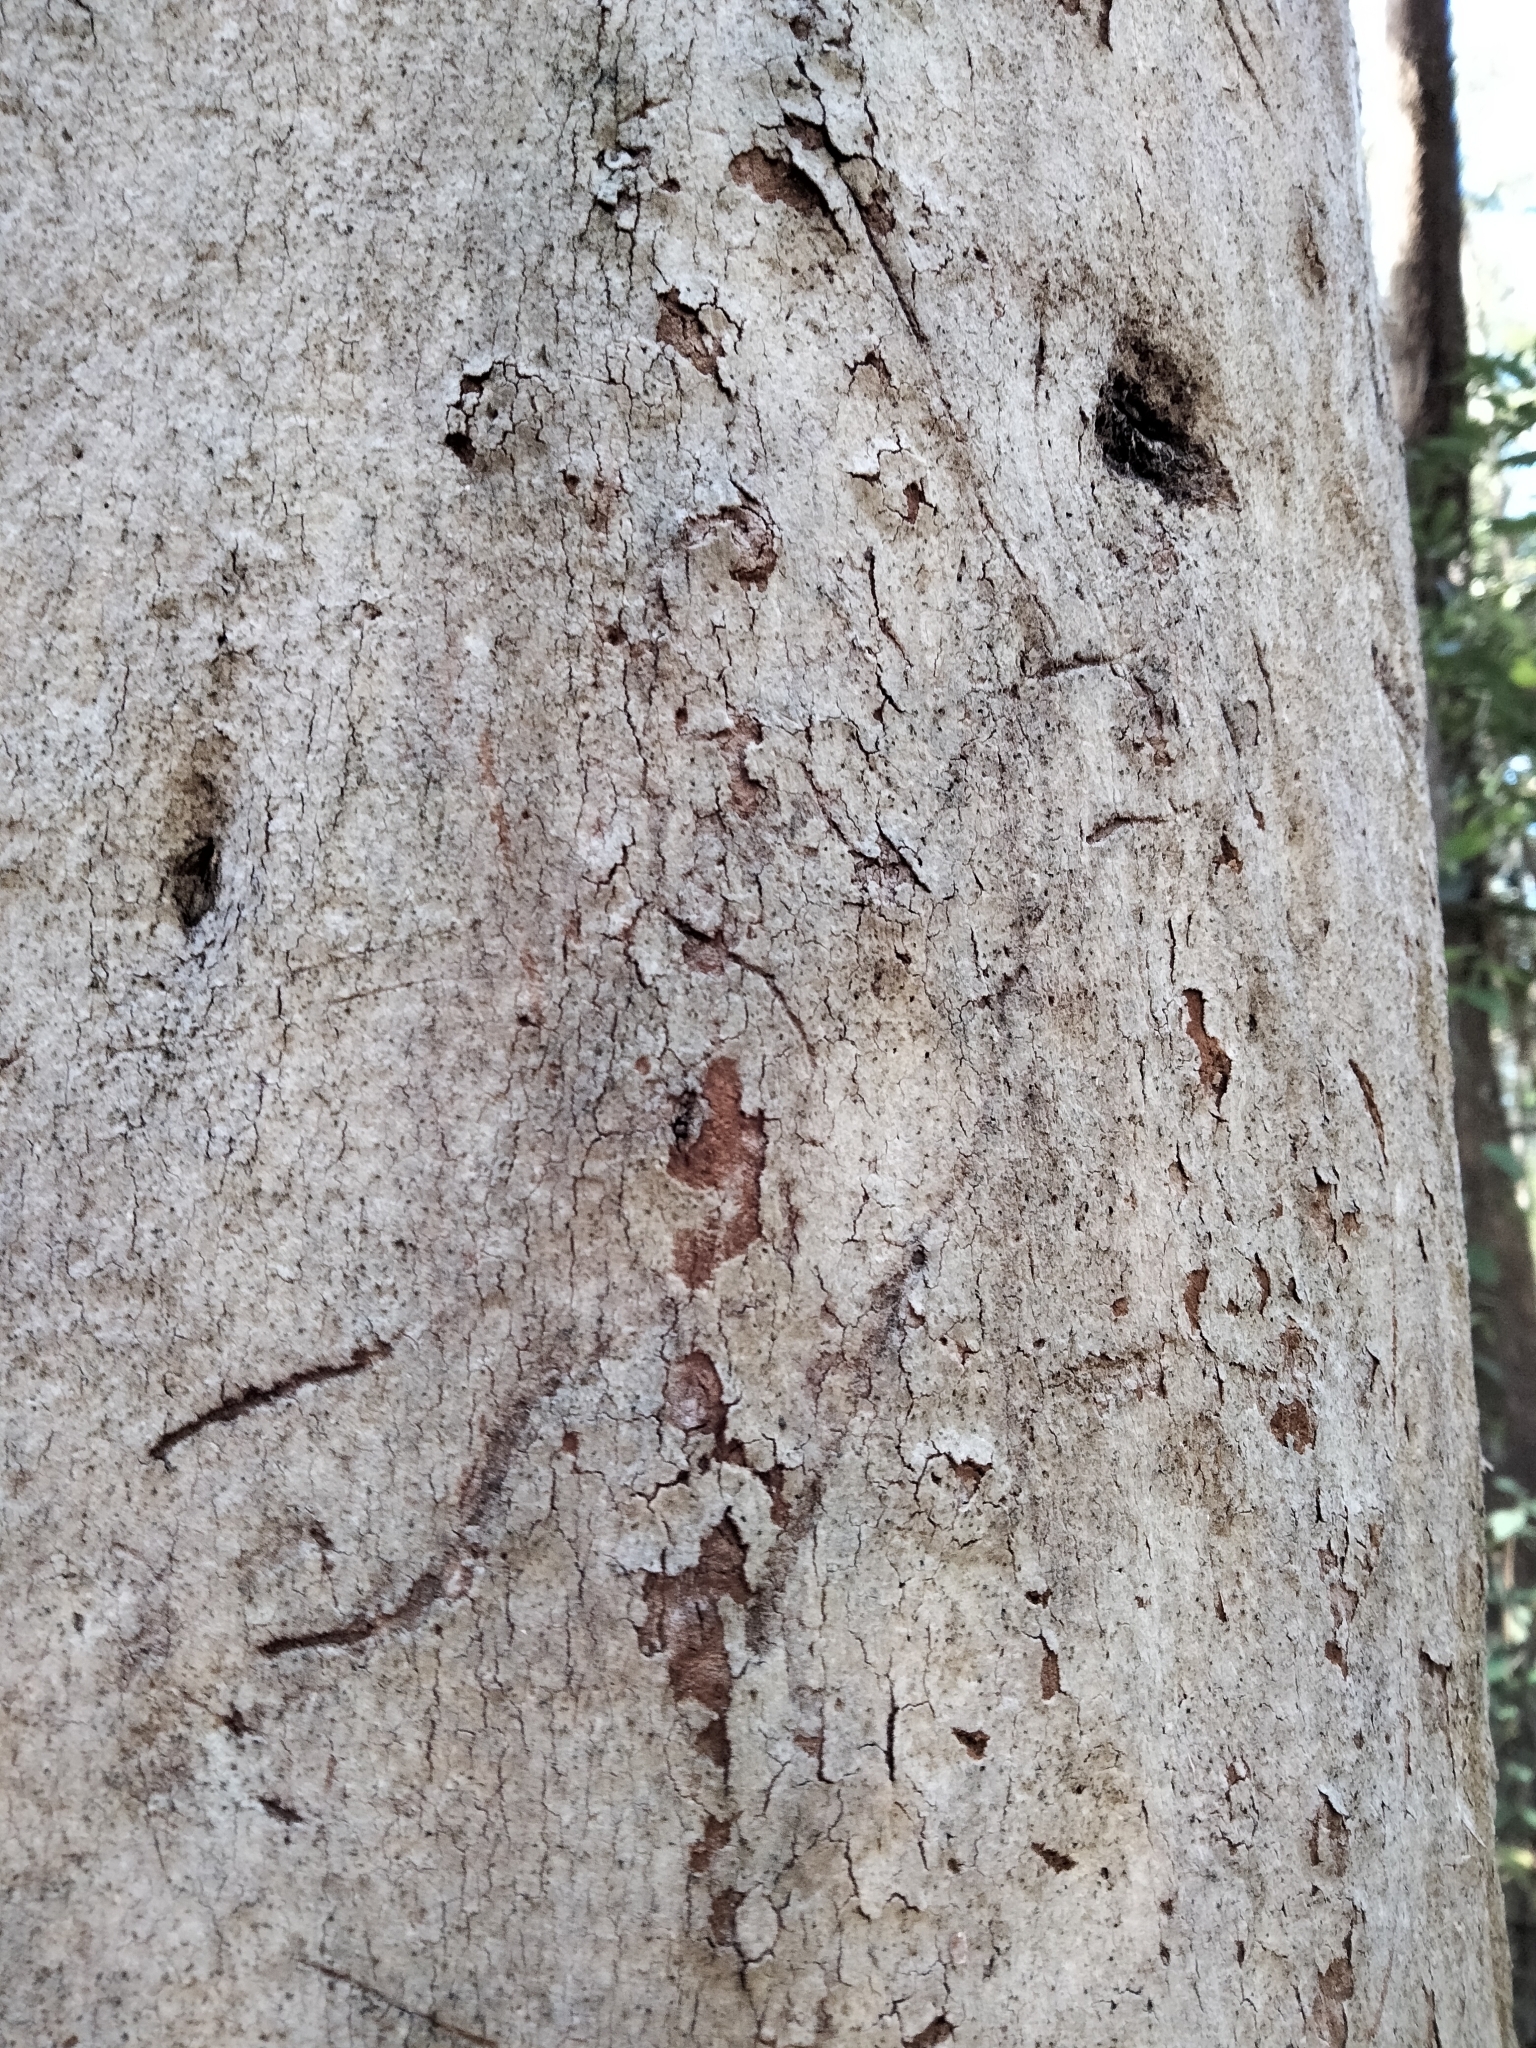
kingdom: Animalia
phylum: Chordata
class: Mammalia
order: Diprotodontia
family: Phascolarctidae
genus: Phascolarctos
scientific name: Phascolarctos cinereus
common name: Koala
